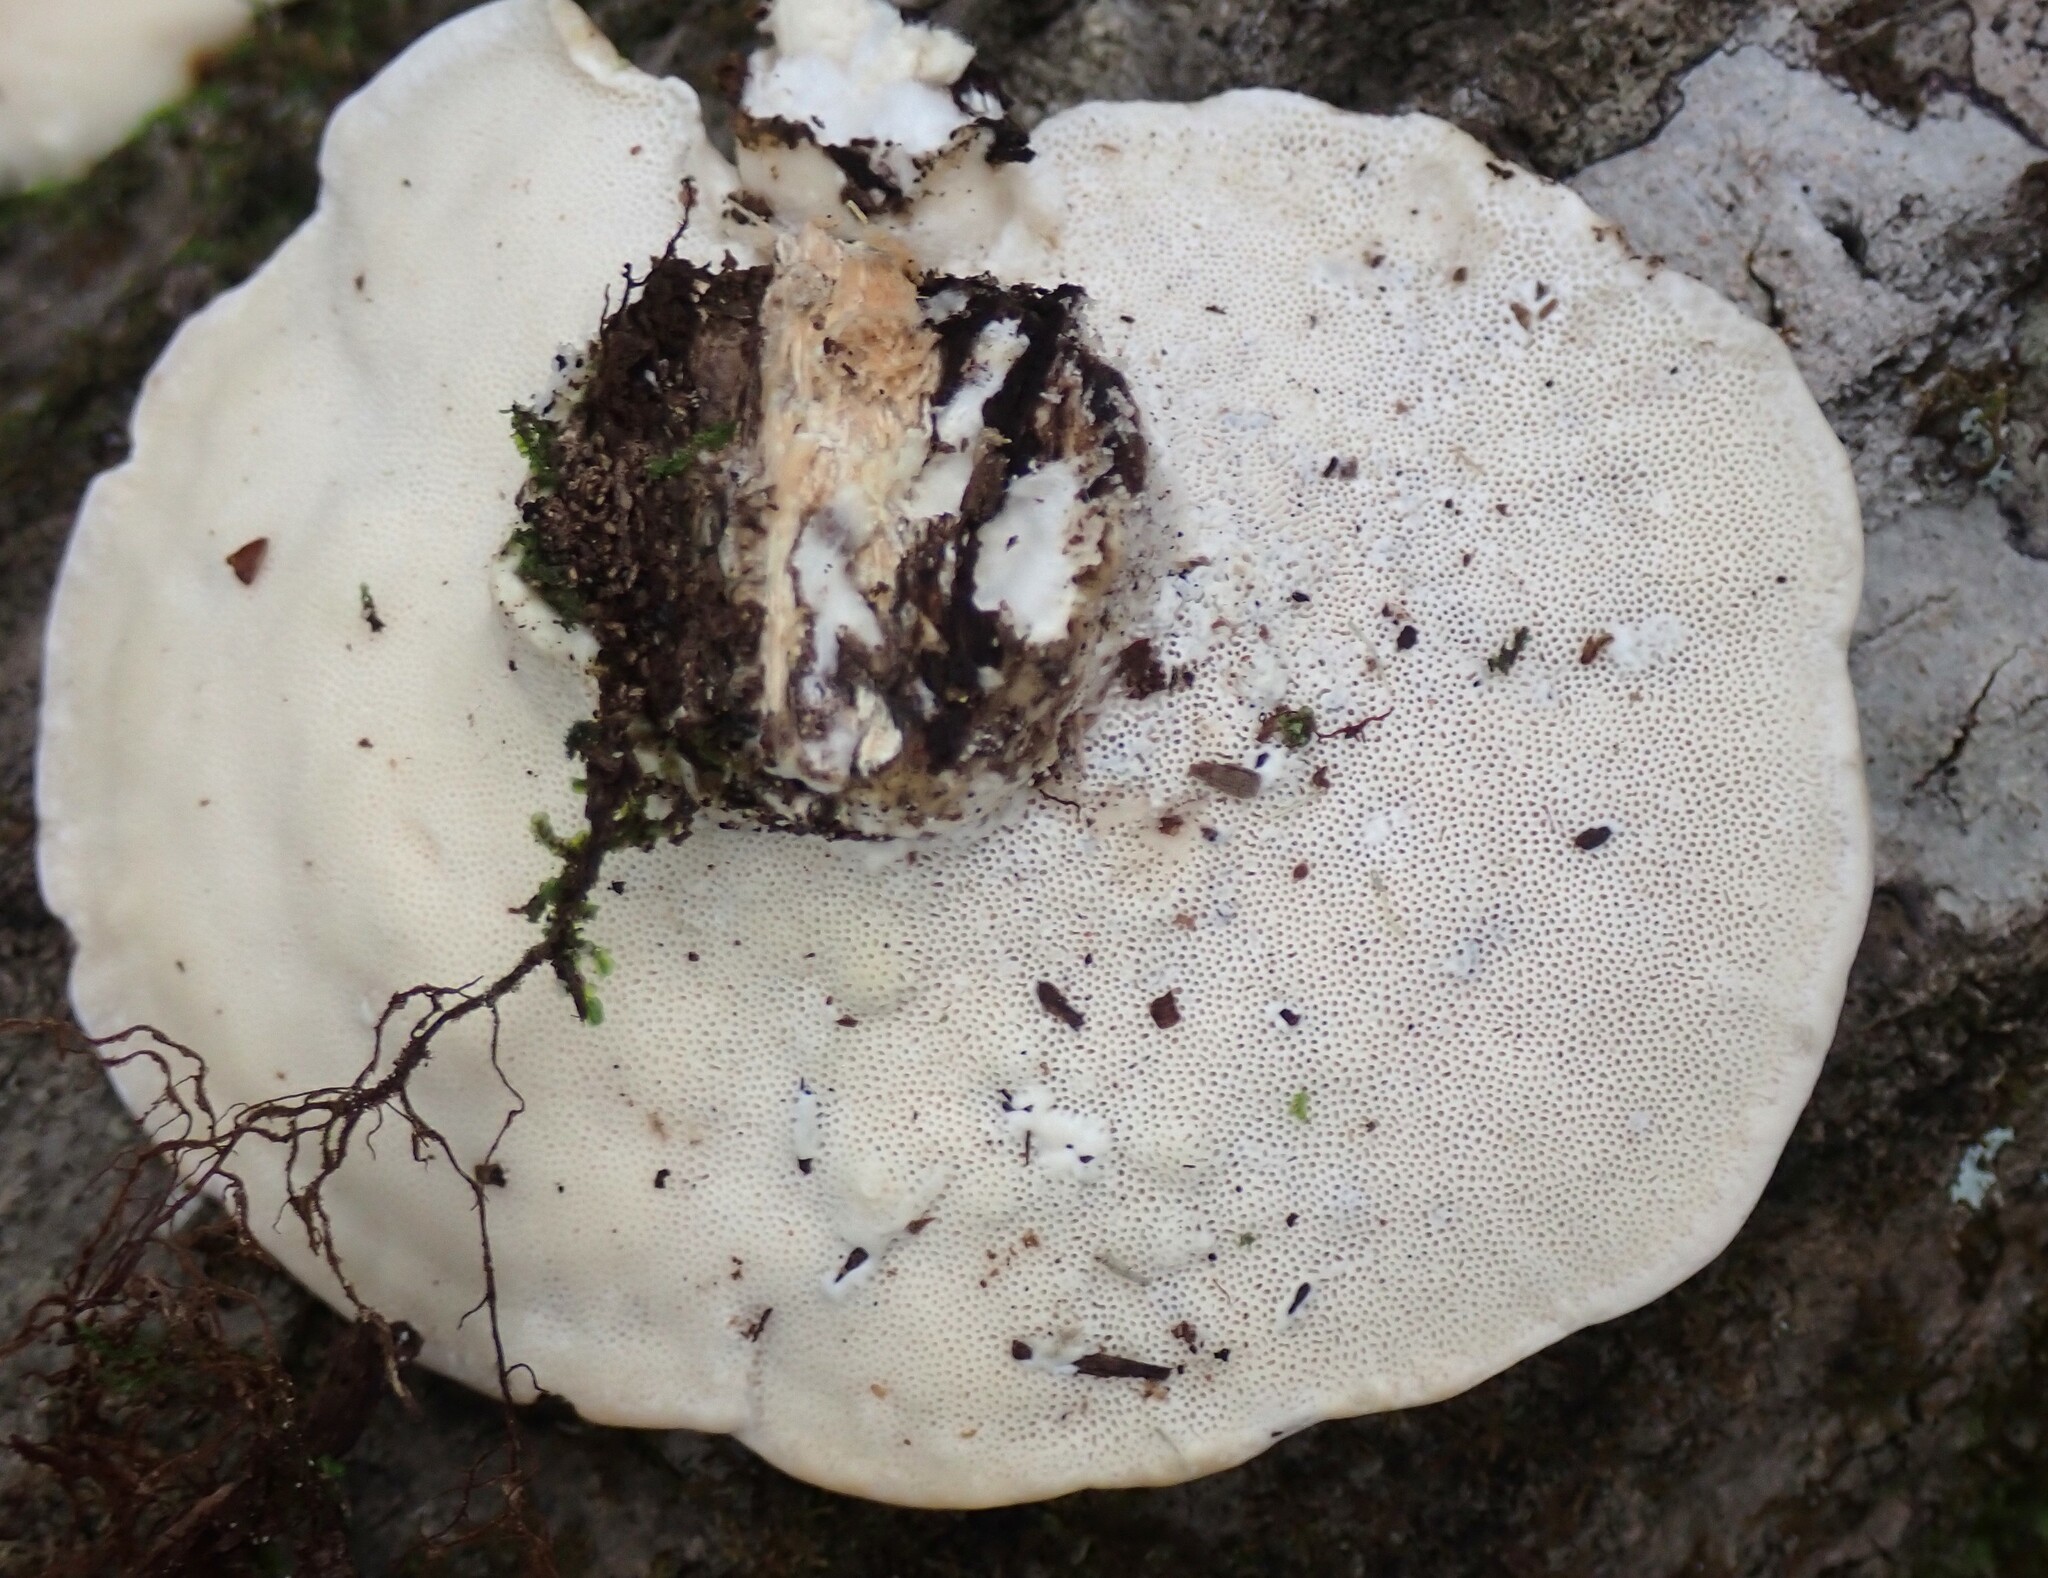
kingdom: Fungi
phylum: Basidiomycota
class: Agaricomycetes
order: Polyporales
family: Polyporaceae
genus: Trametes
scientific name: Trametes lactinea
